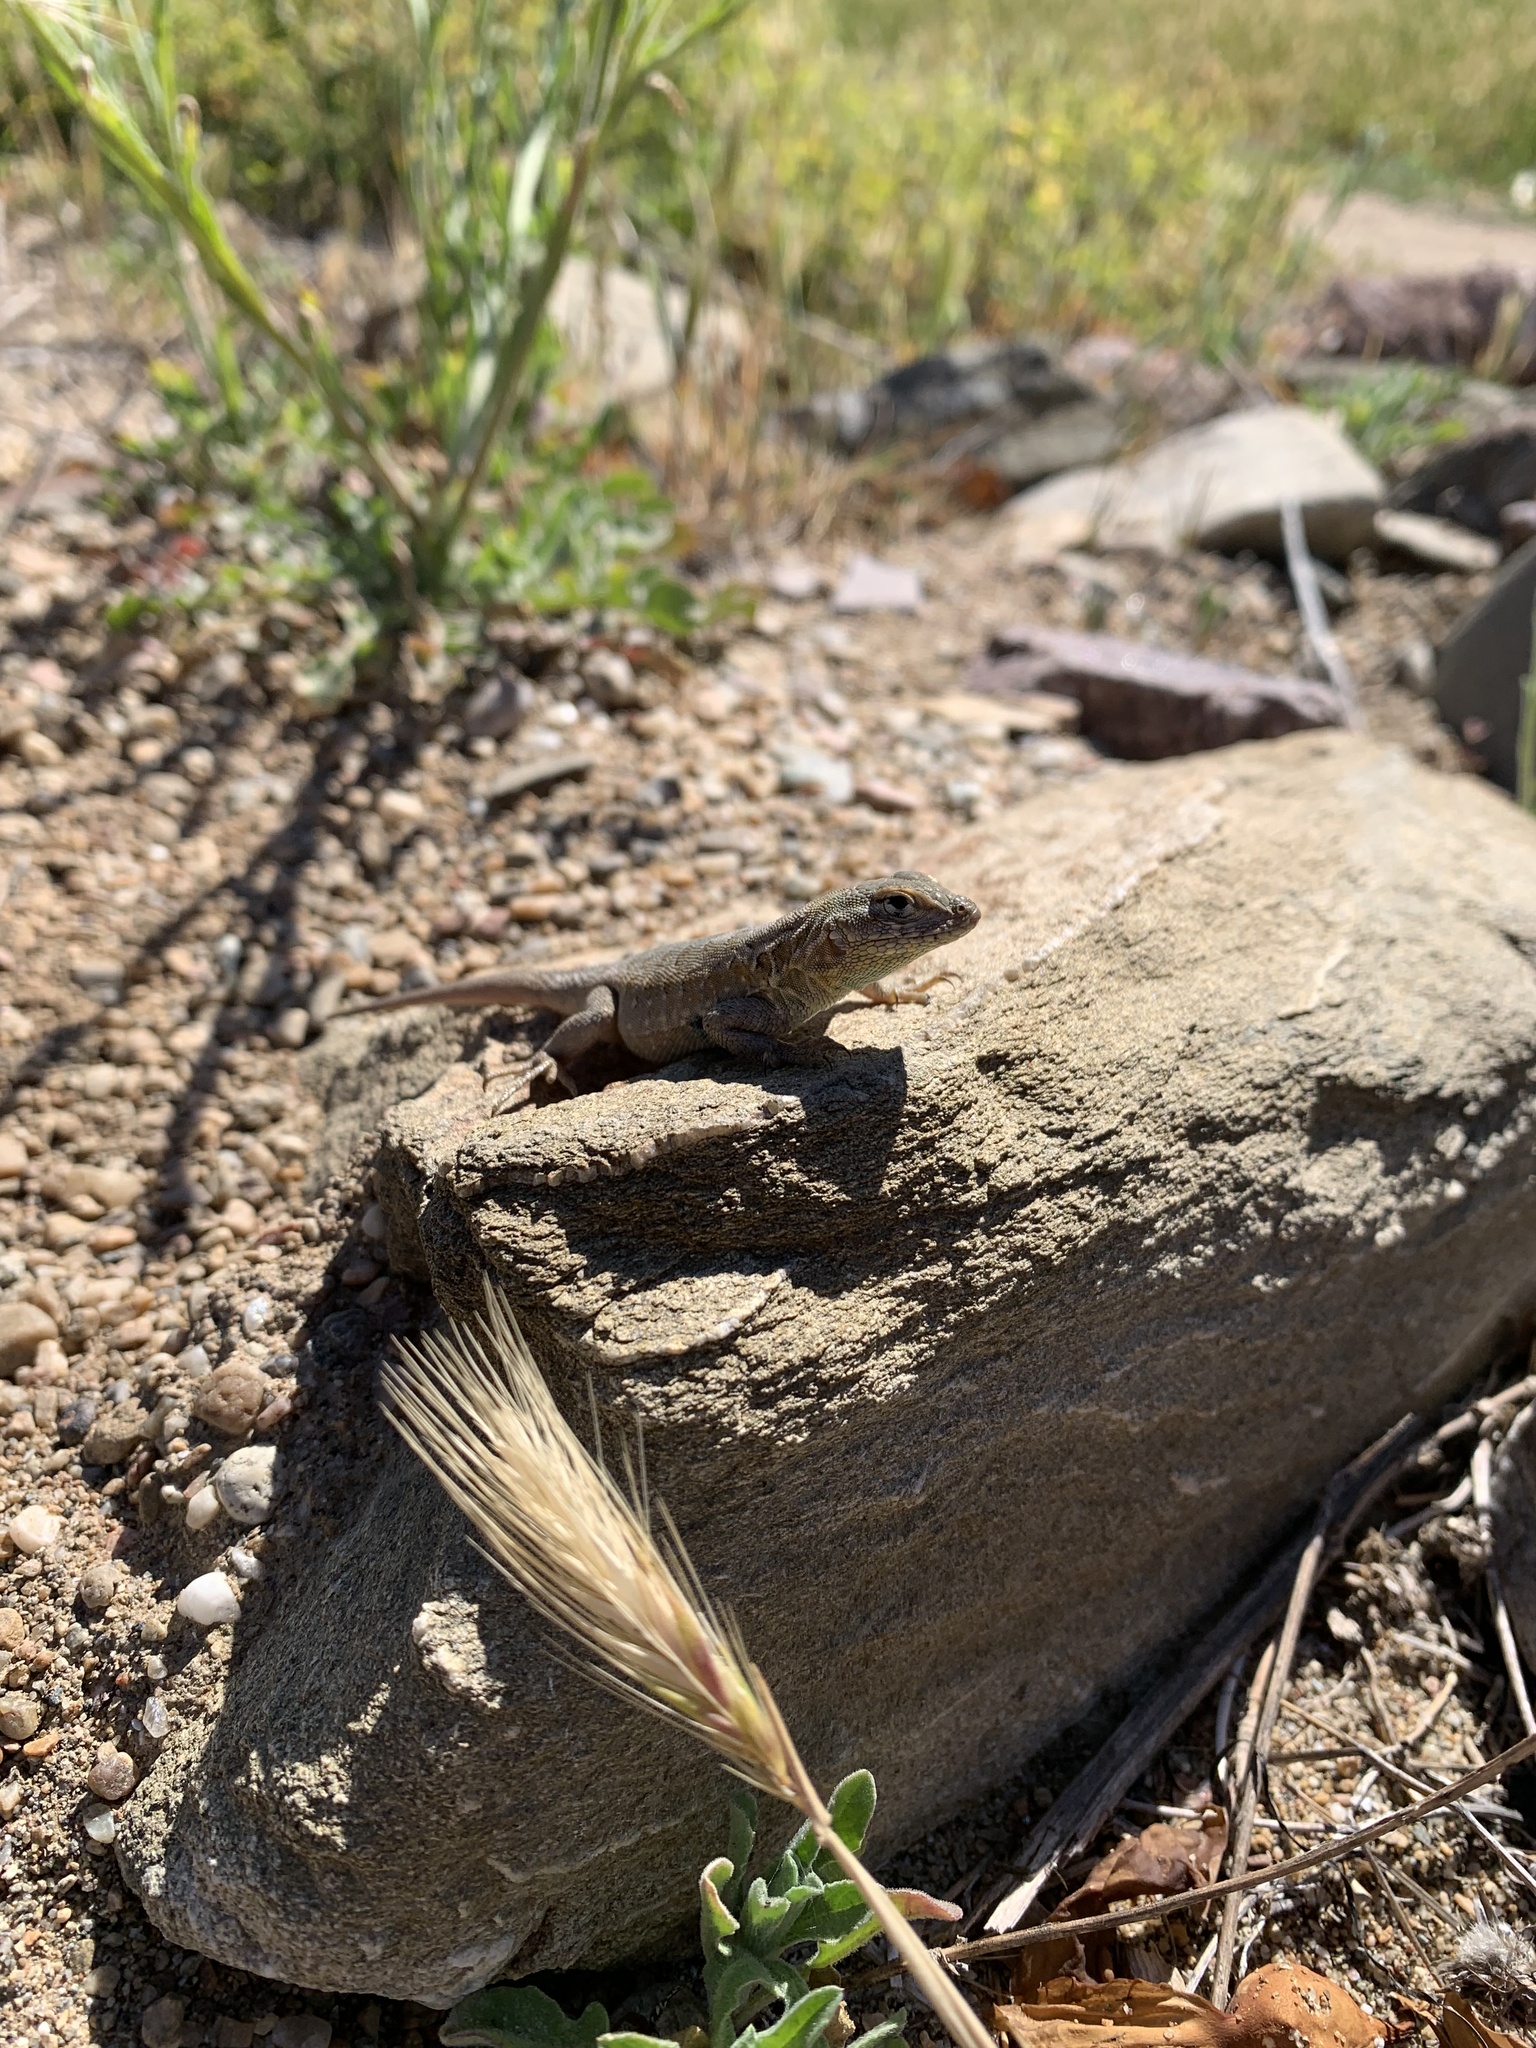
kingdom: Animalia
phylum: Chordata
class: Squamata
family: Phrynosomatidae
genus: Uta
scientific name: Uta stansburiana
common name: Side-blotched lizard
